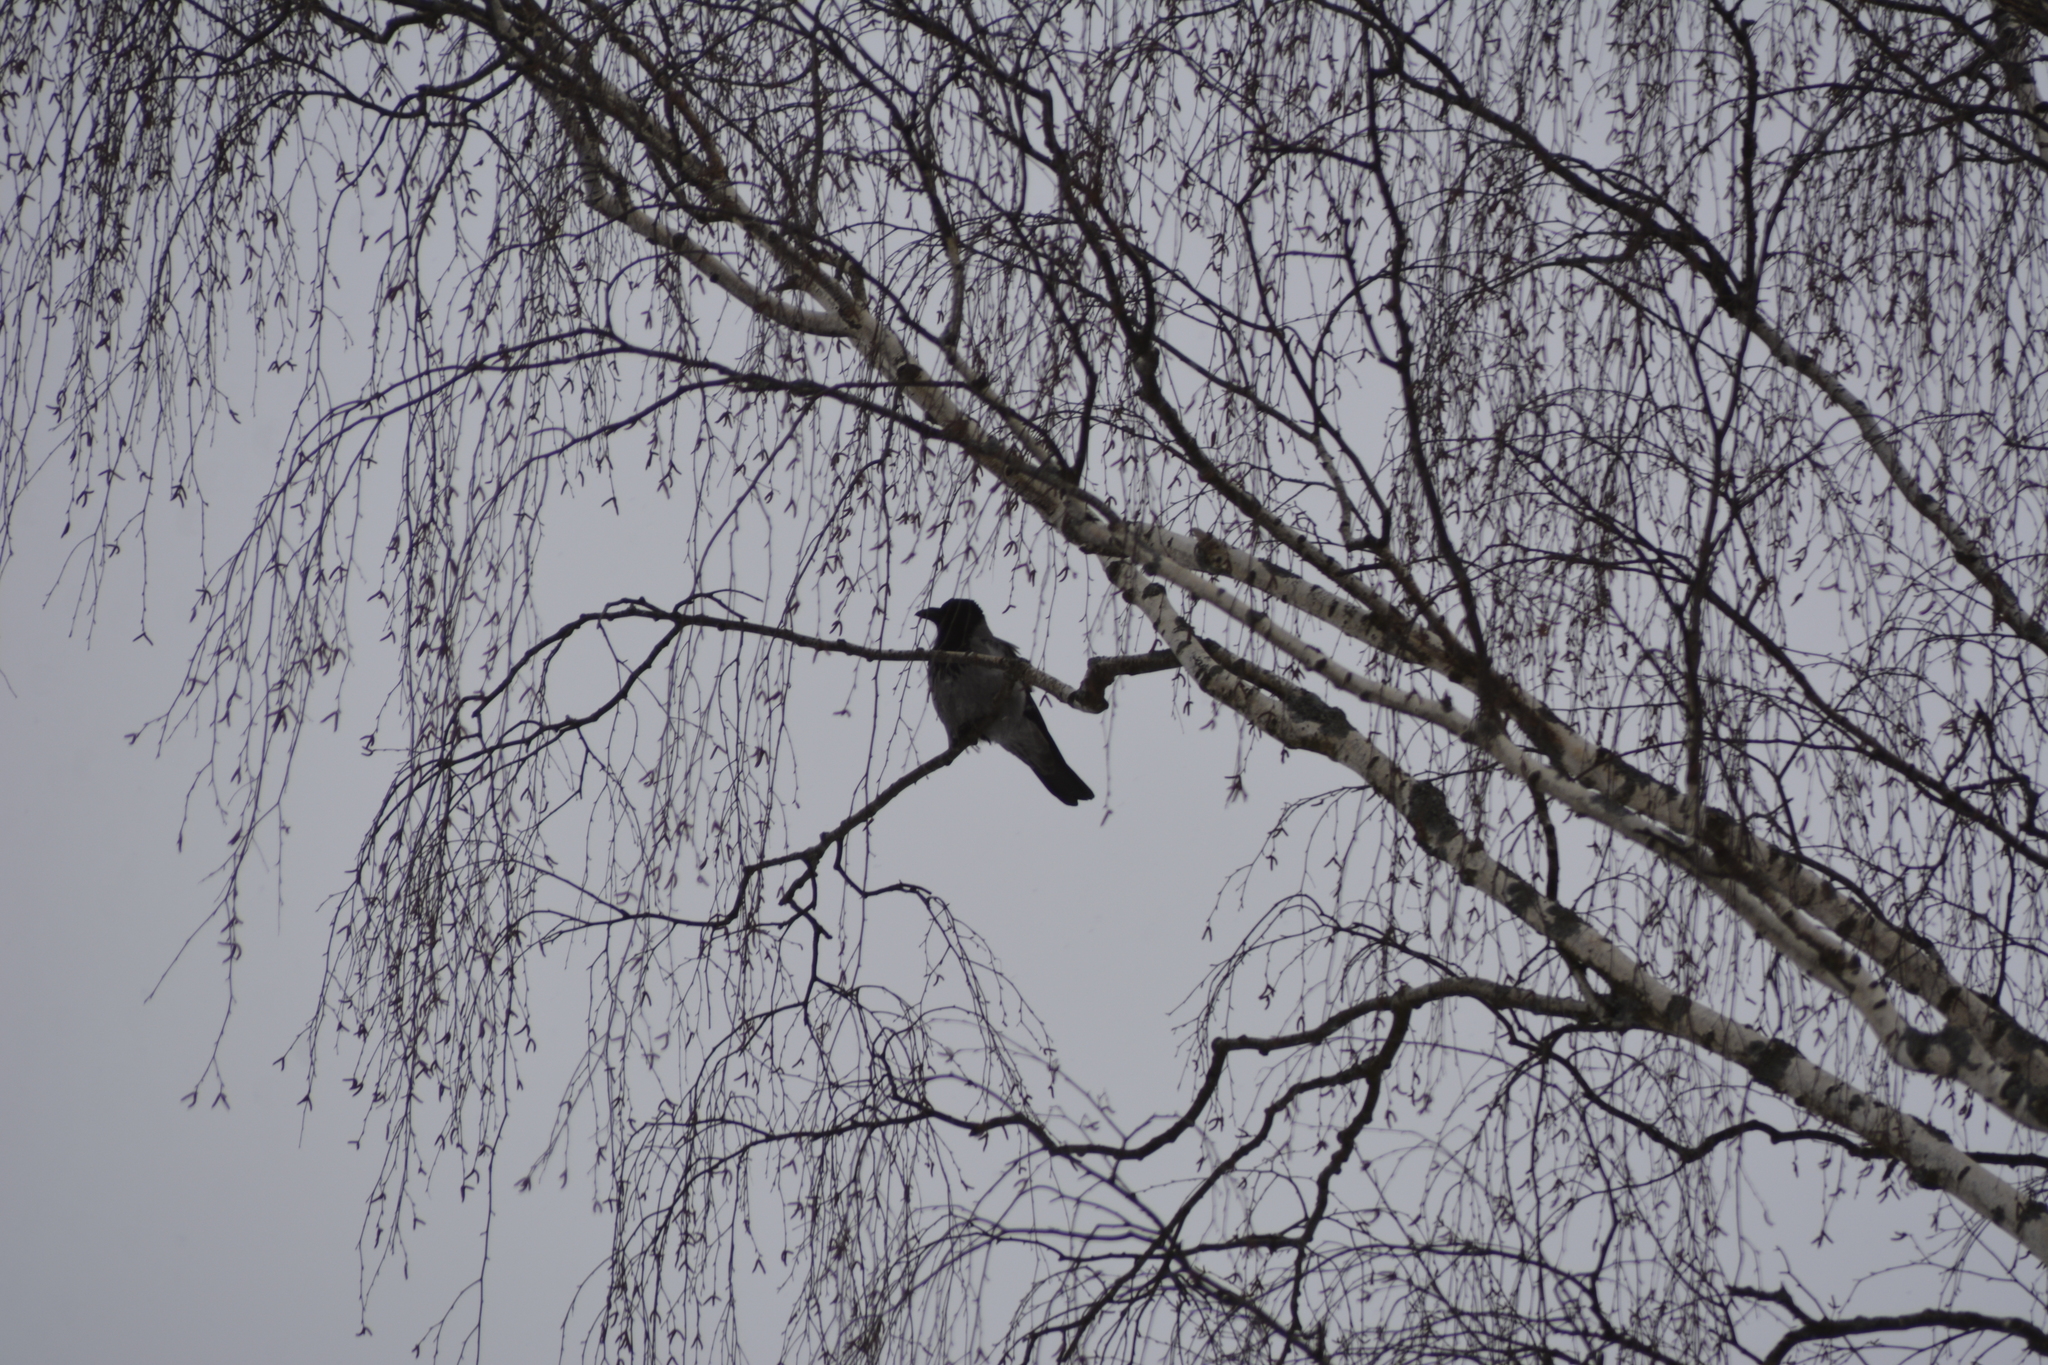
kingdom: Animalia
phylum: Chordata
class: Aves
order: Passeriformes
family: Corvidae
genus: Corvus
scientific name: Corvus cornix
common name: Hooded crow
